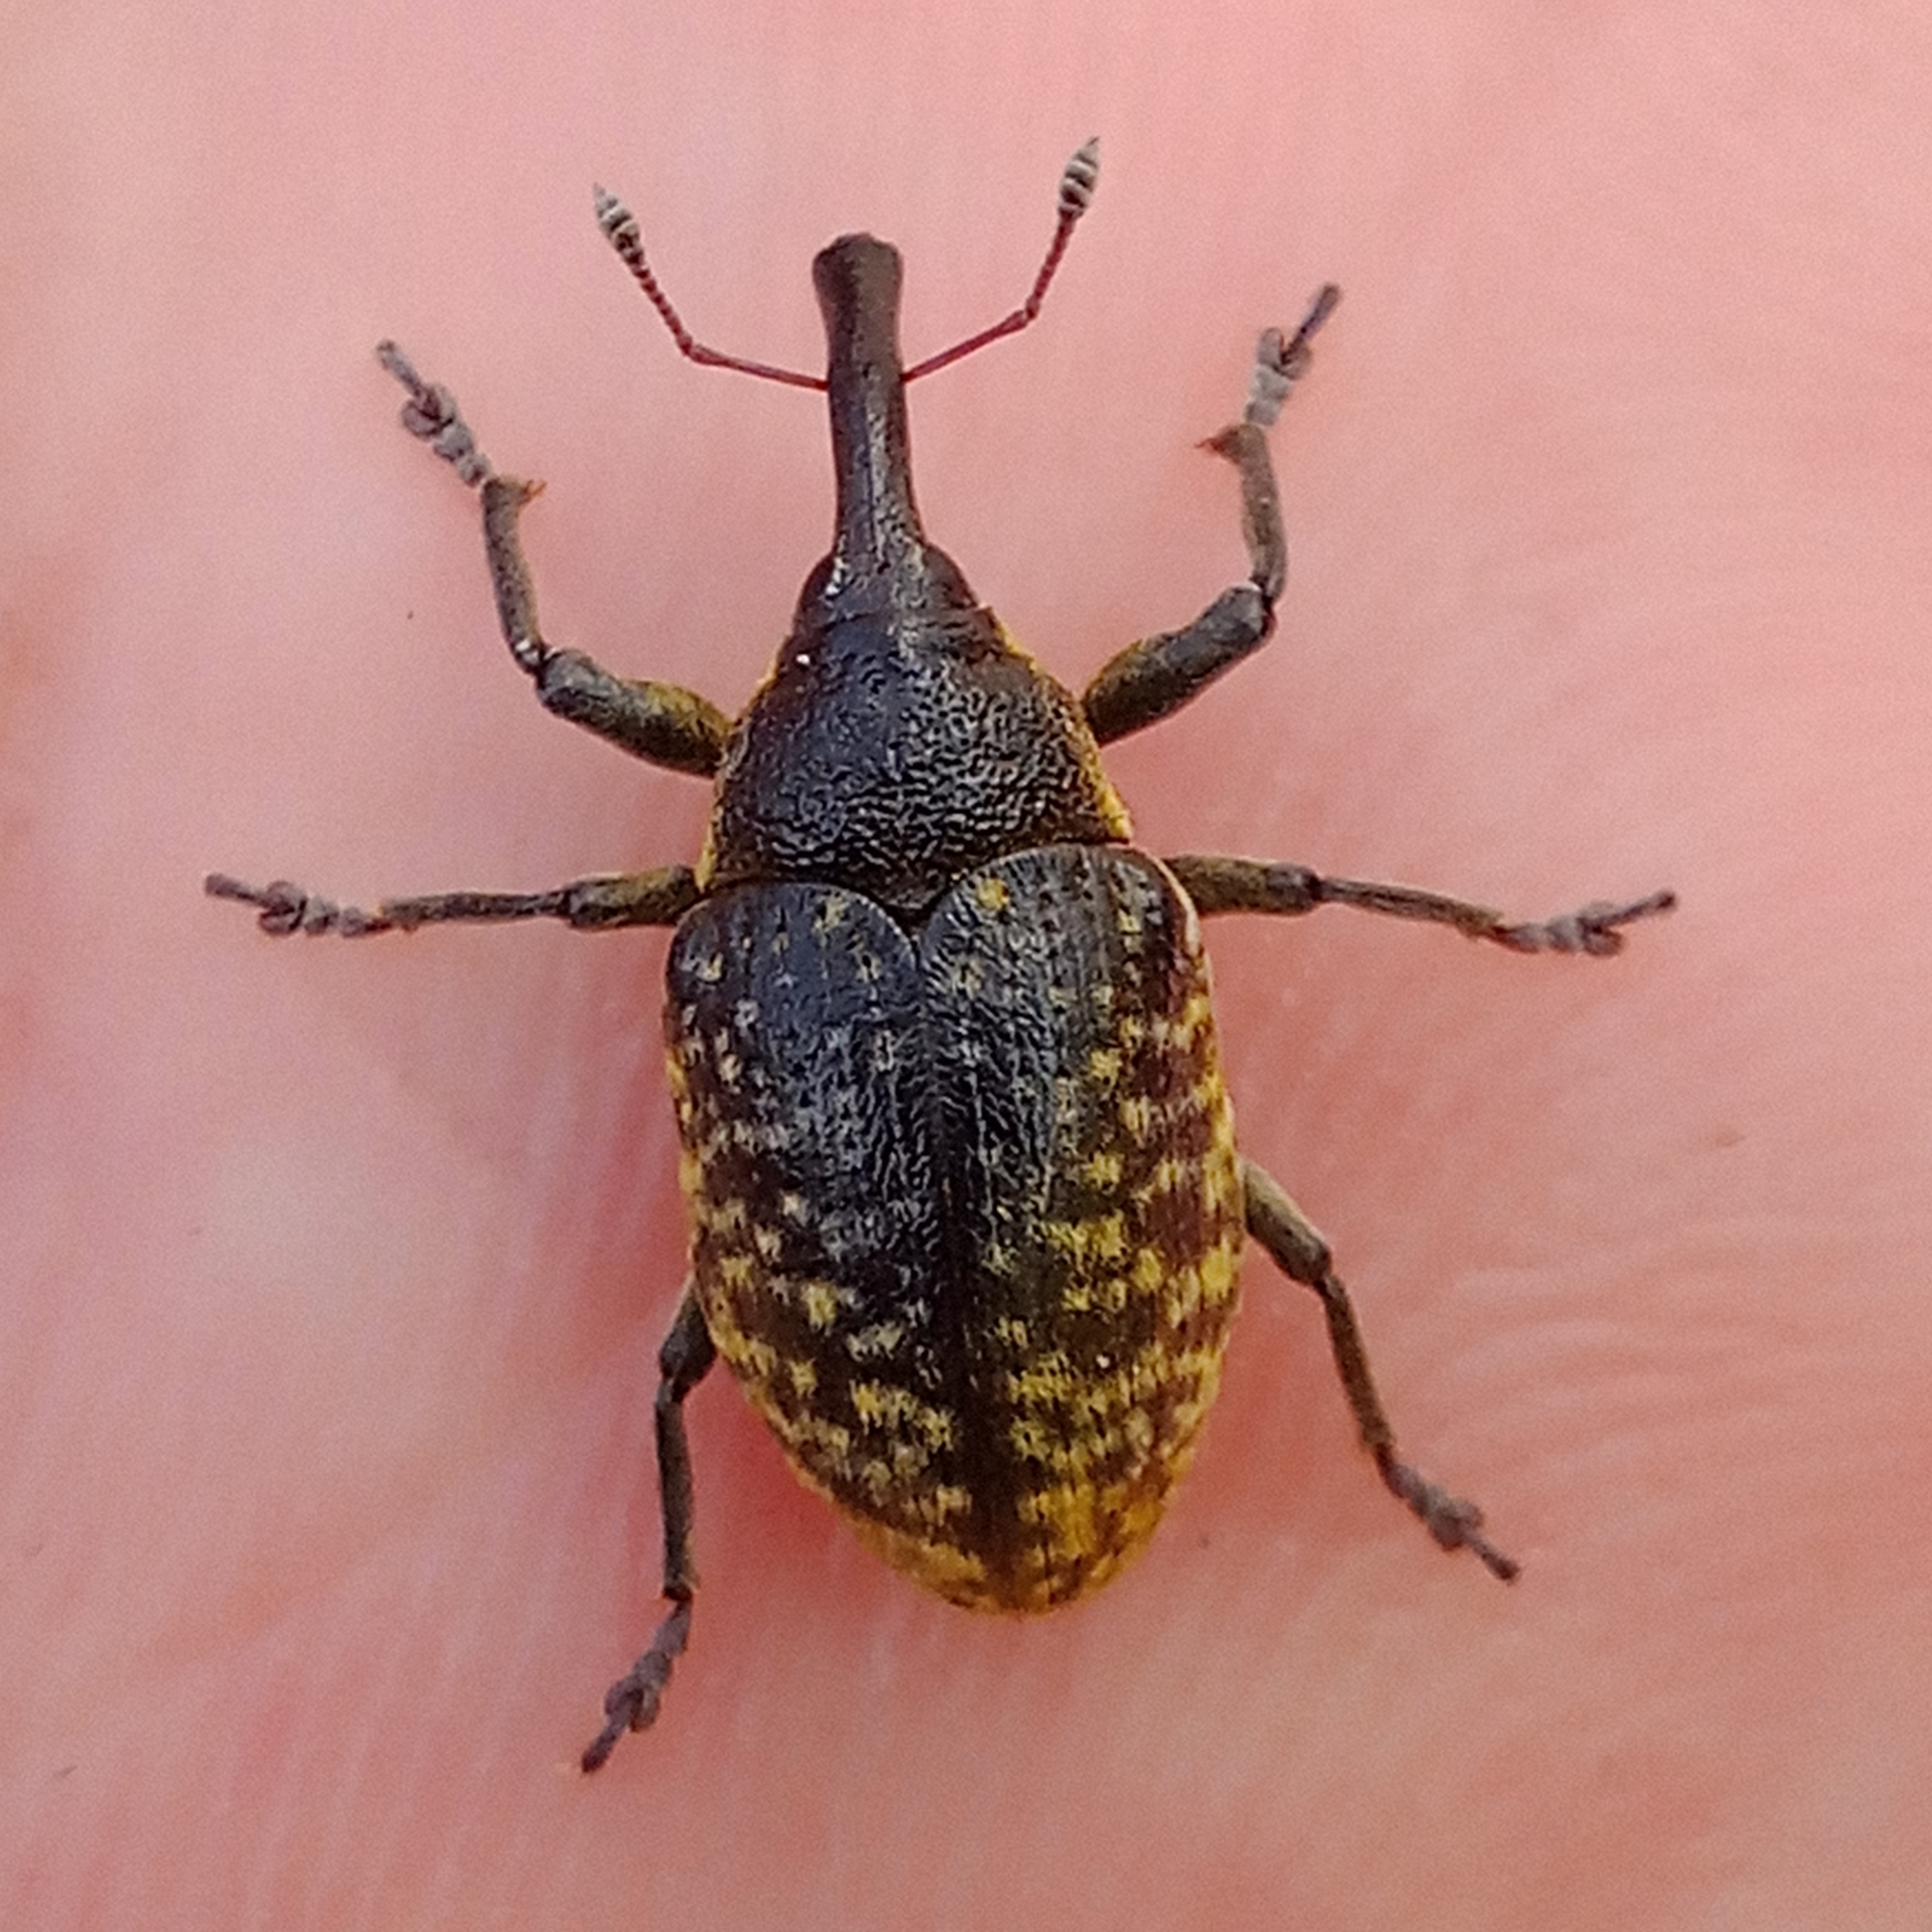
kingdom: Animalia
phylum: Arthropoda
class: Insecta
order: Coleoptera
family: Curculionidae
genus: Larinus
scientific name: Larinus sturnus
